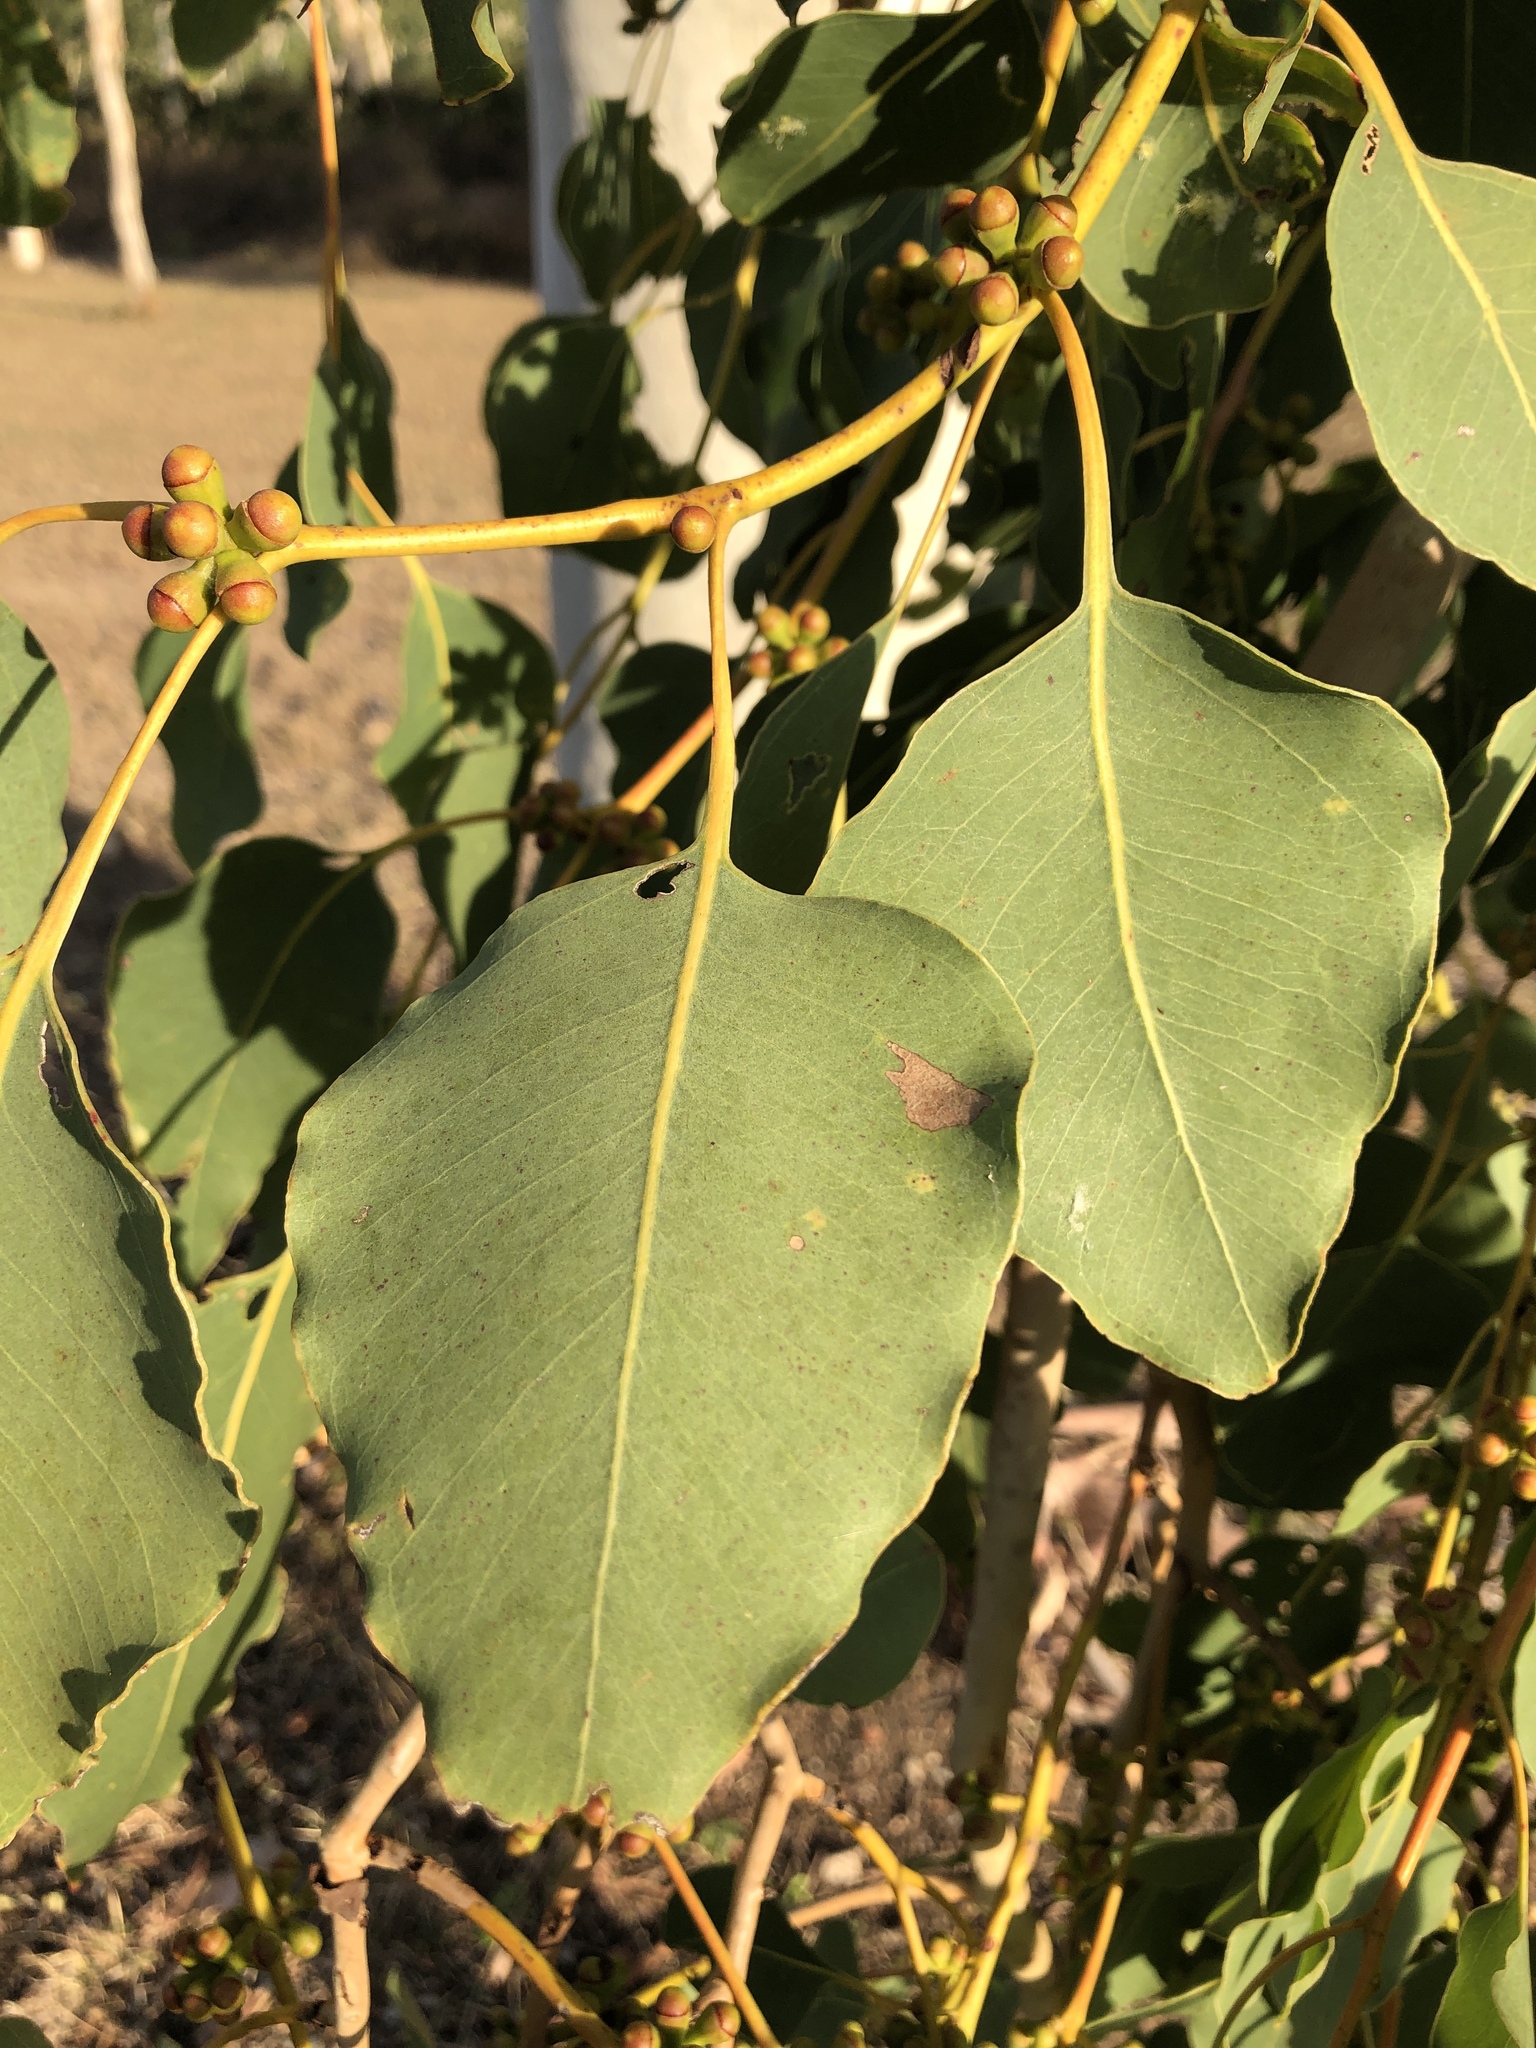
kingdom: Plantae
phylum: Tracheophyta
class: Magnoliopsida
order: Myrtales
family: Myrtaceae
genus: Eucalyptus
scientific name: Eucalyptus platyphylla
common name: Poplar-gum
